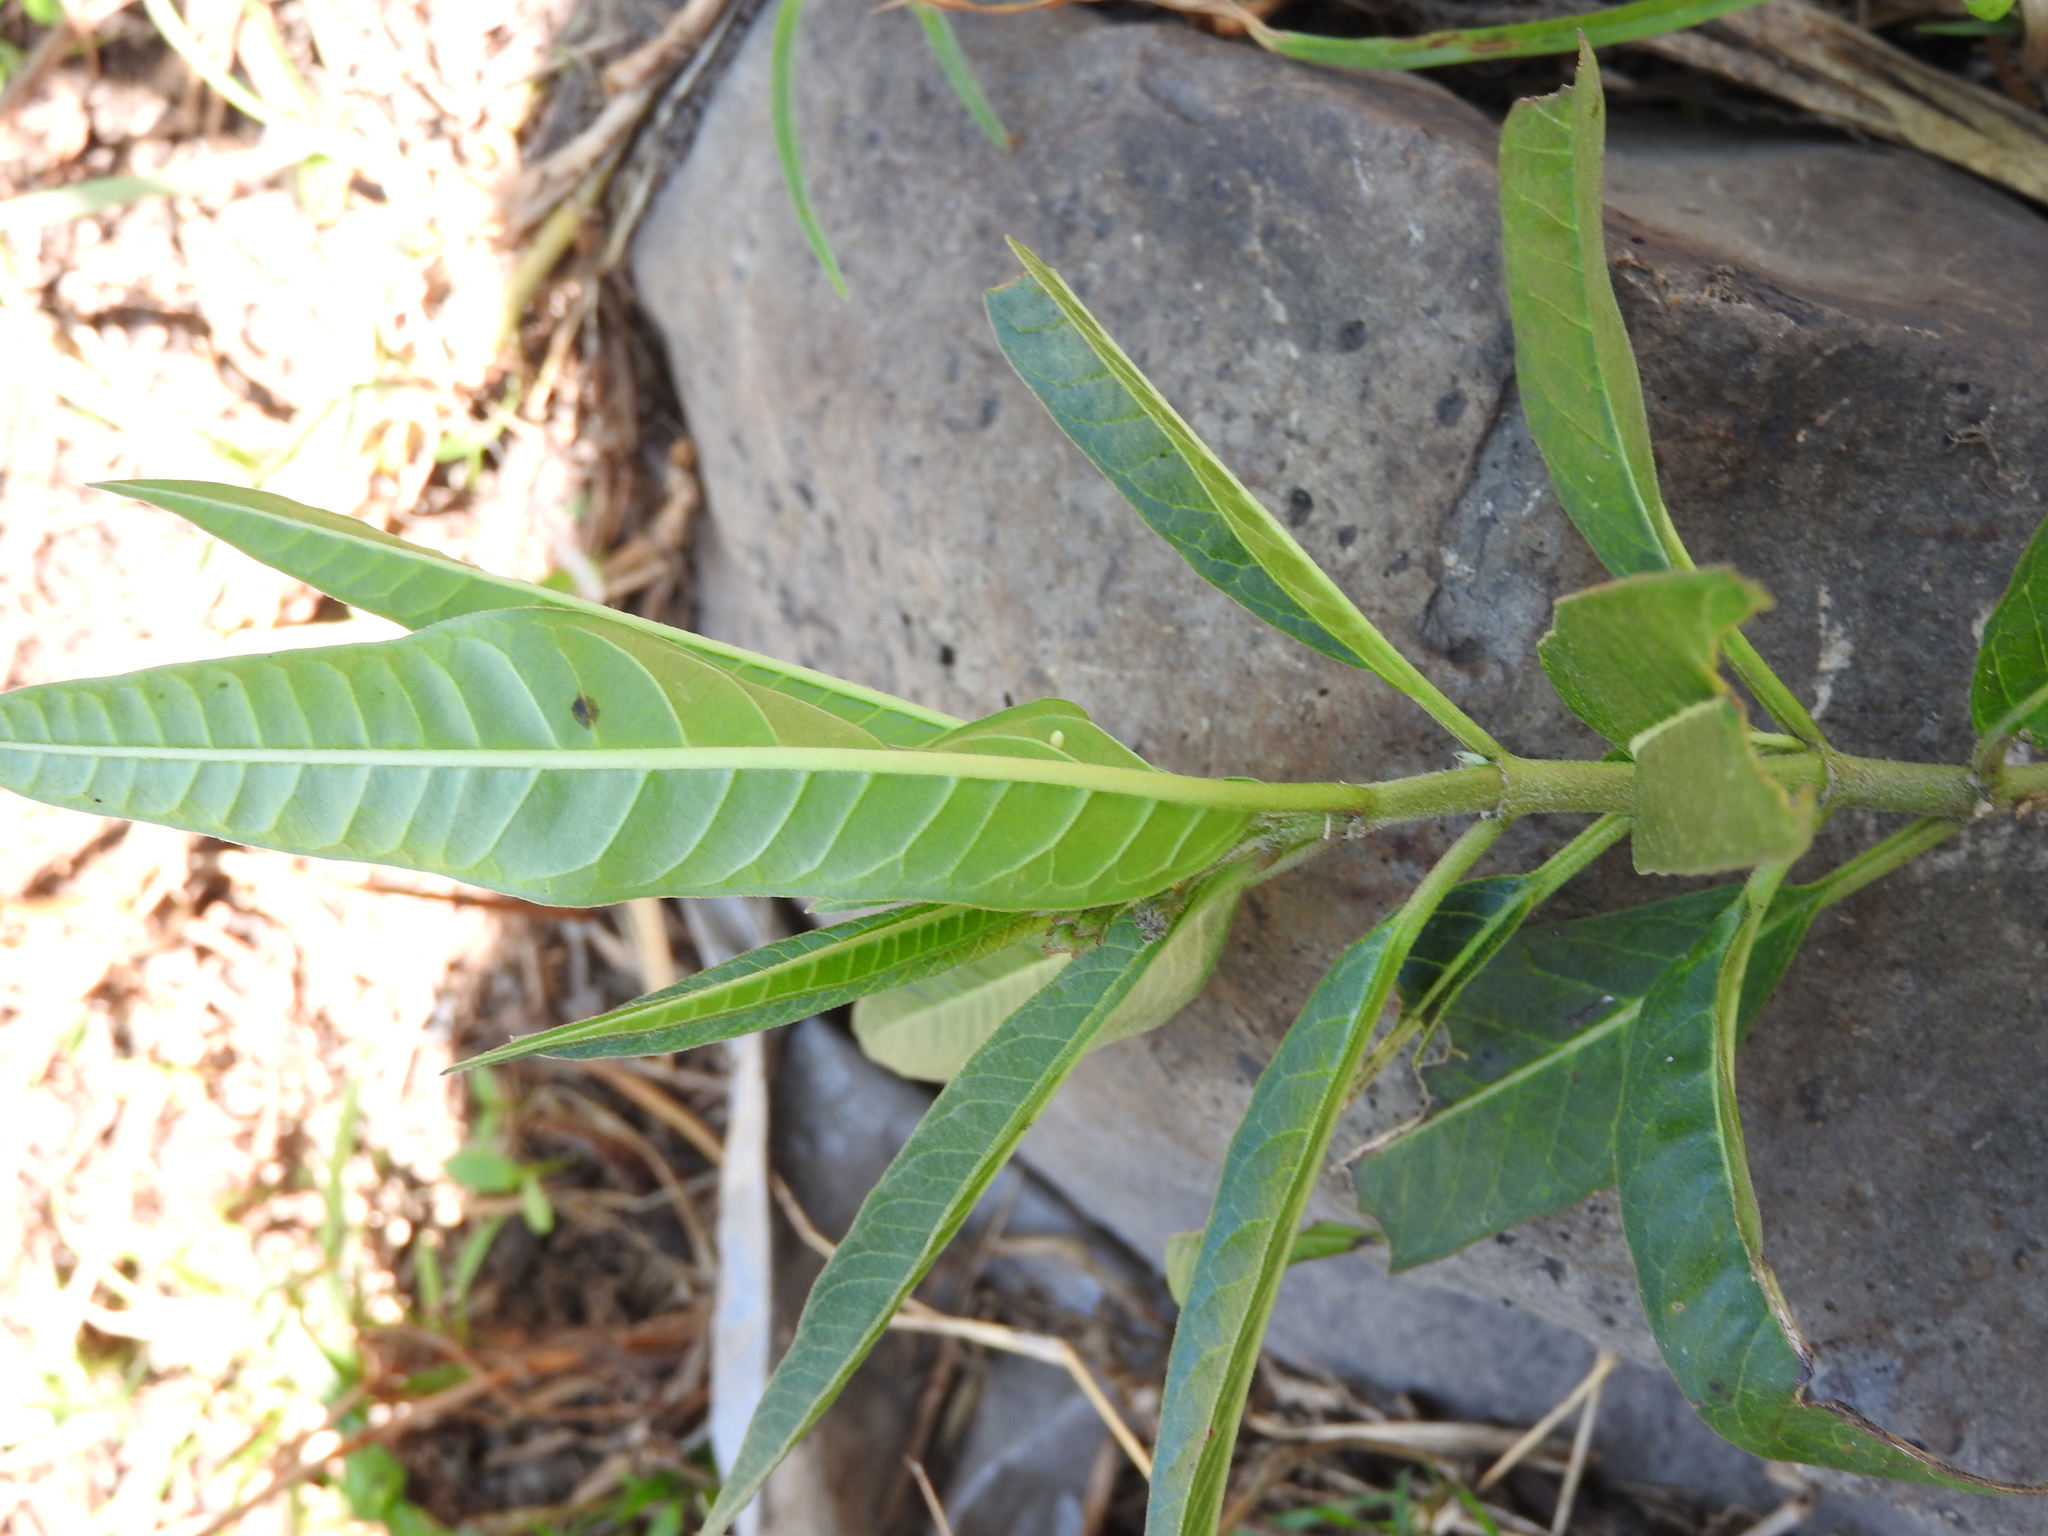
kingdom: Animalia
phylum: Arthropoda
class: Insecta
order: Lepidoptera
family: Nymphalidae
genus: Danaus
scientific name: Danaus plexippus
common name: Monarch
